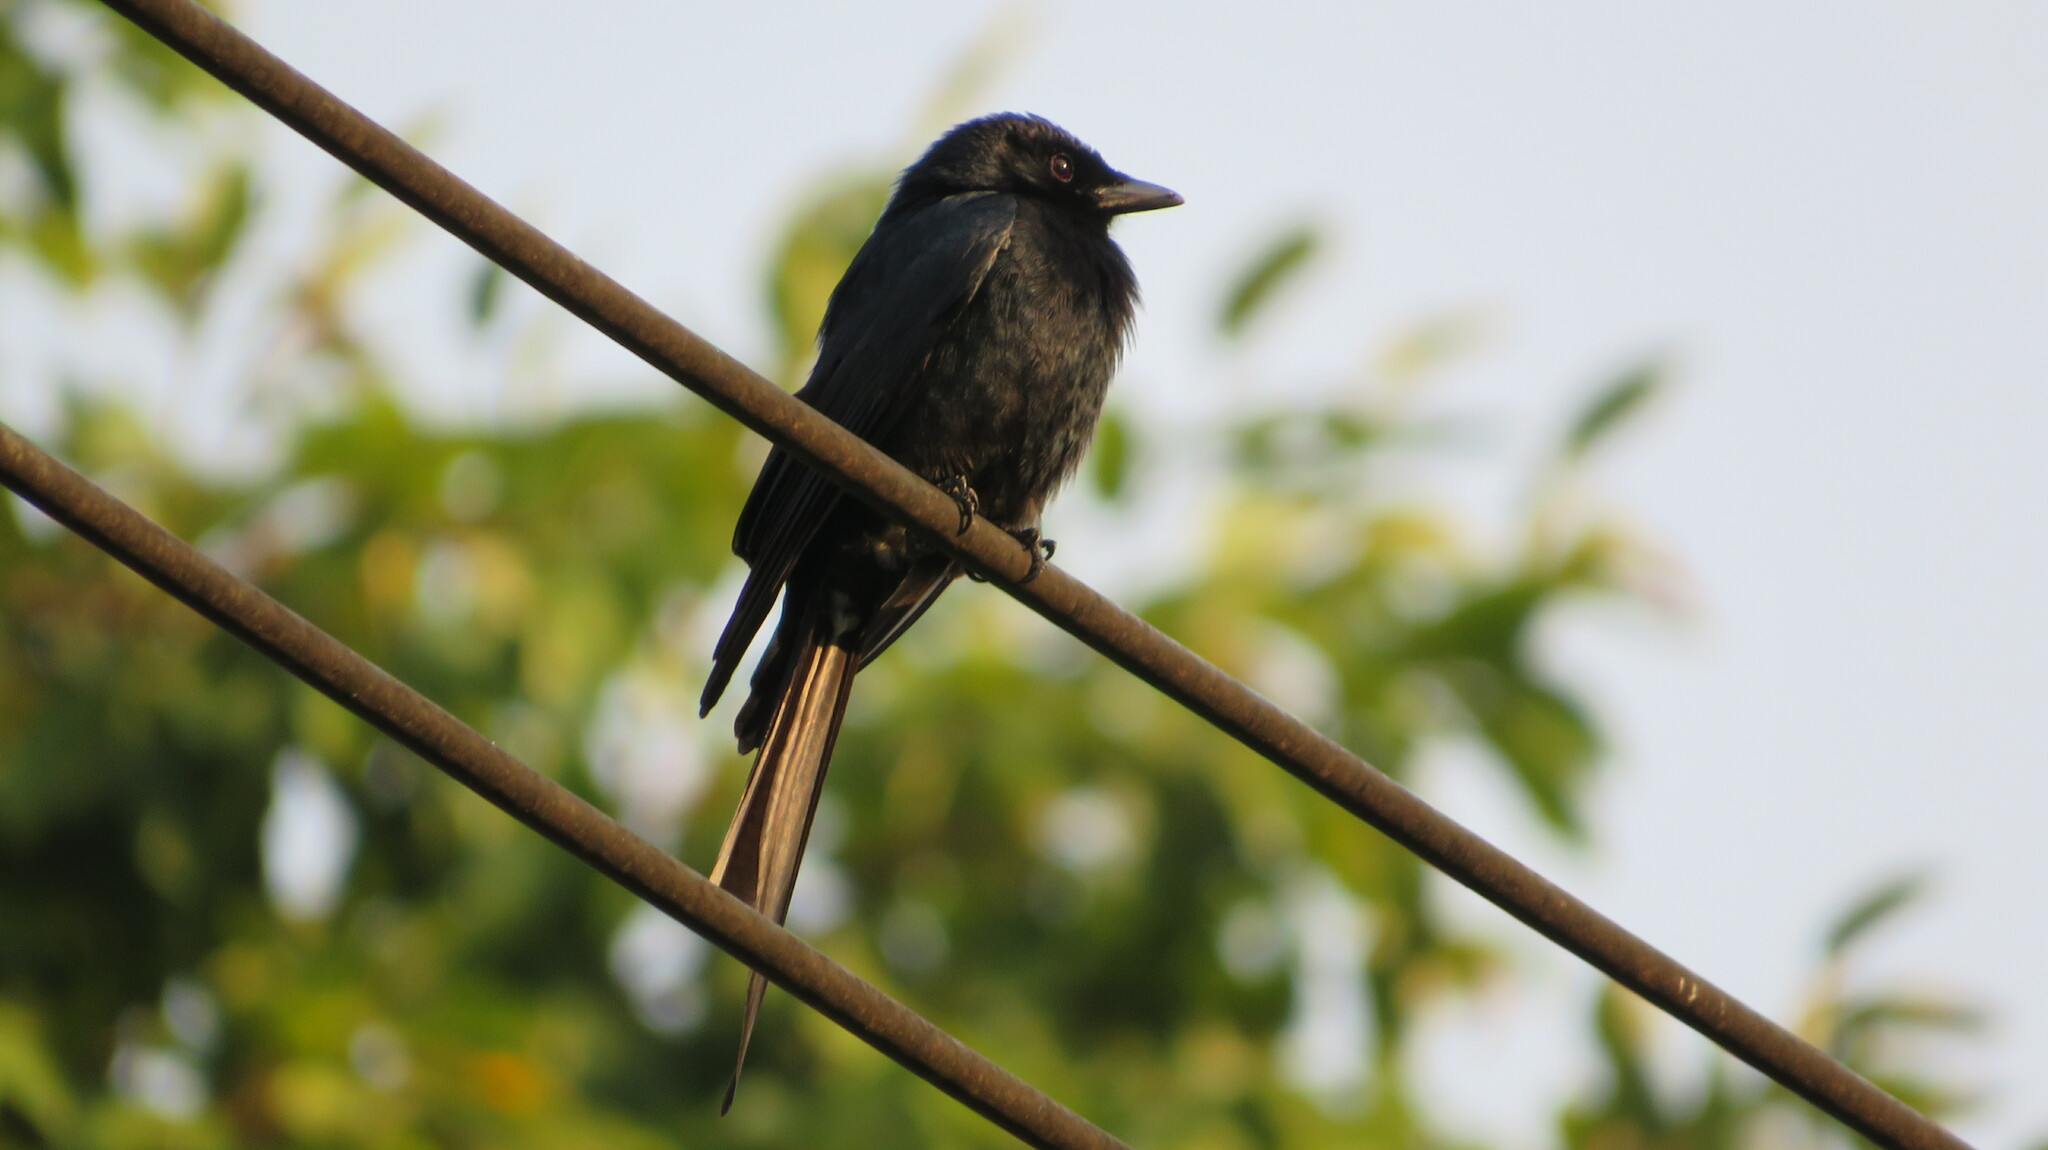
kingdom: Animalia
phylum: Chordata
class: Aves
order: Passeriformes
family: Dicruridae
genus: Dicrurus
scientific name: Dicrurus macrocercus
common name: Black drongo
